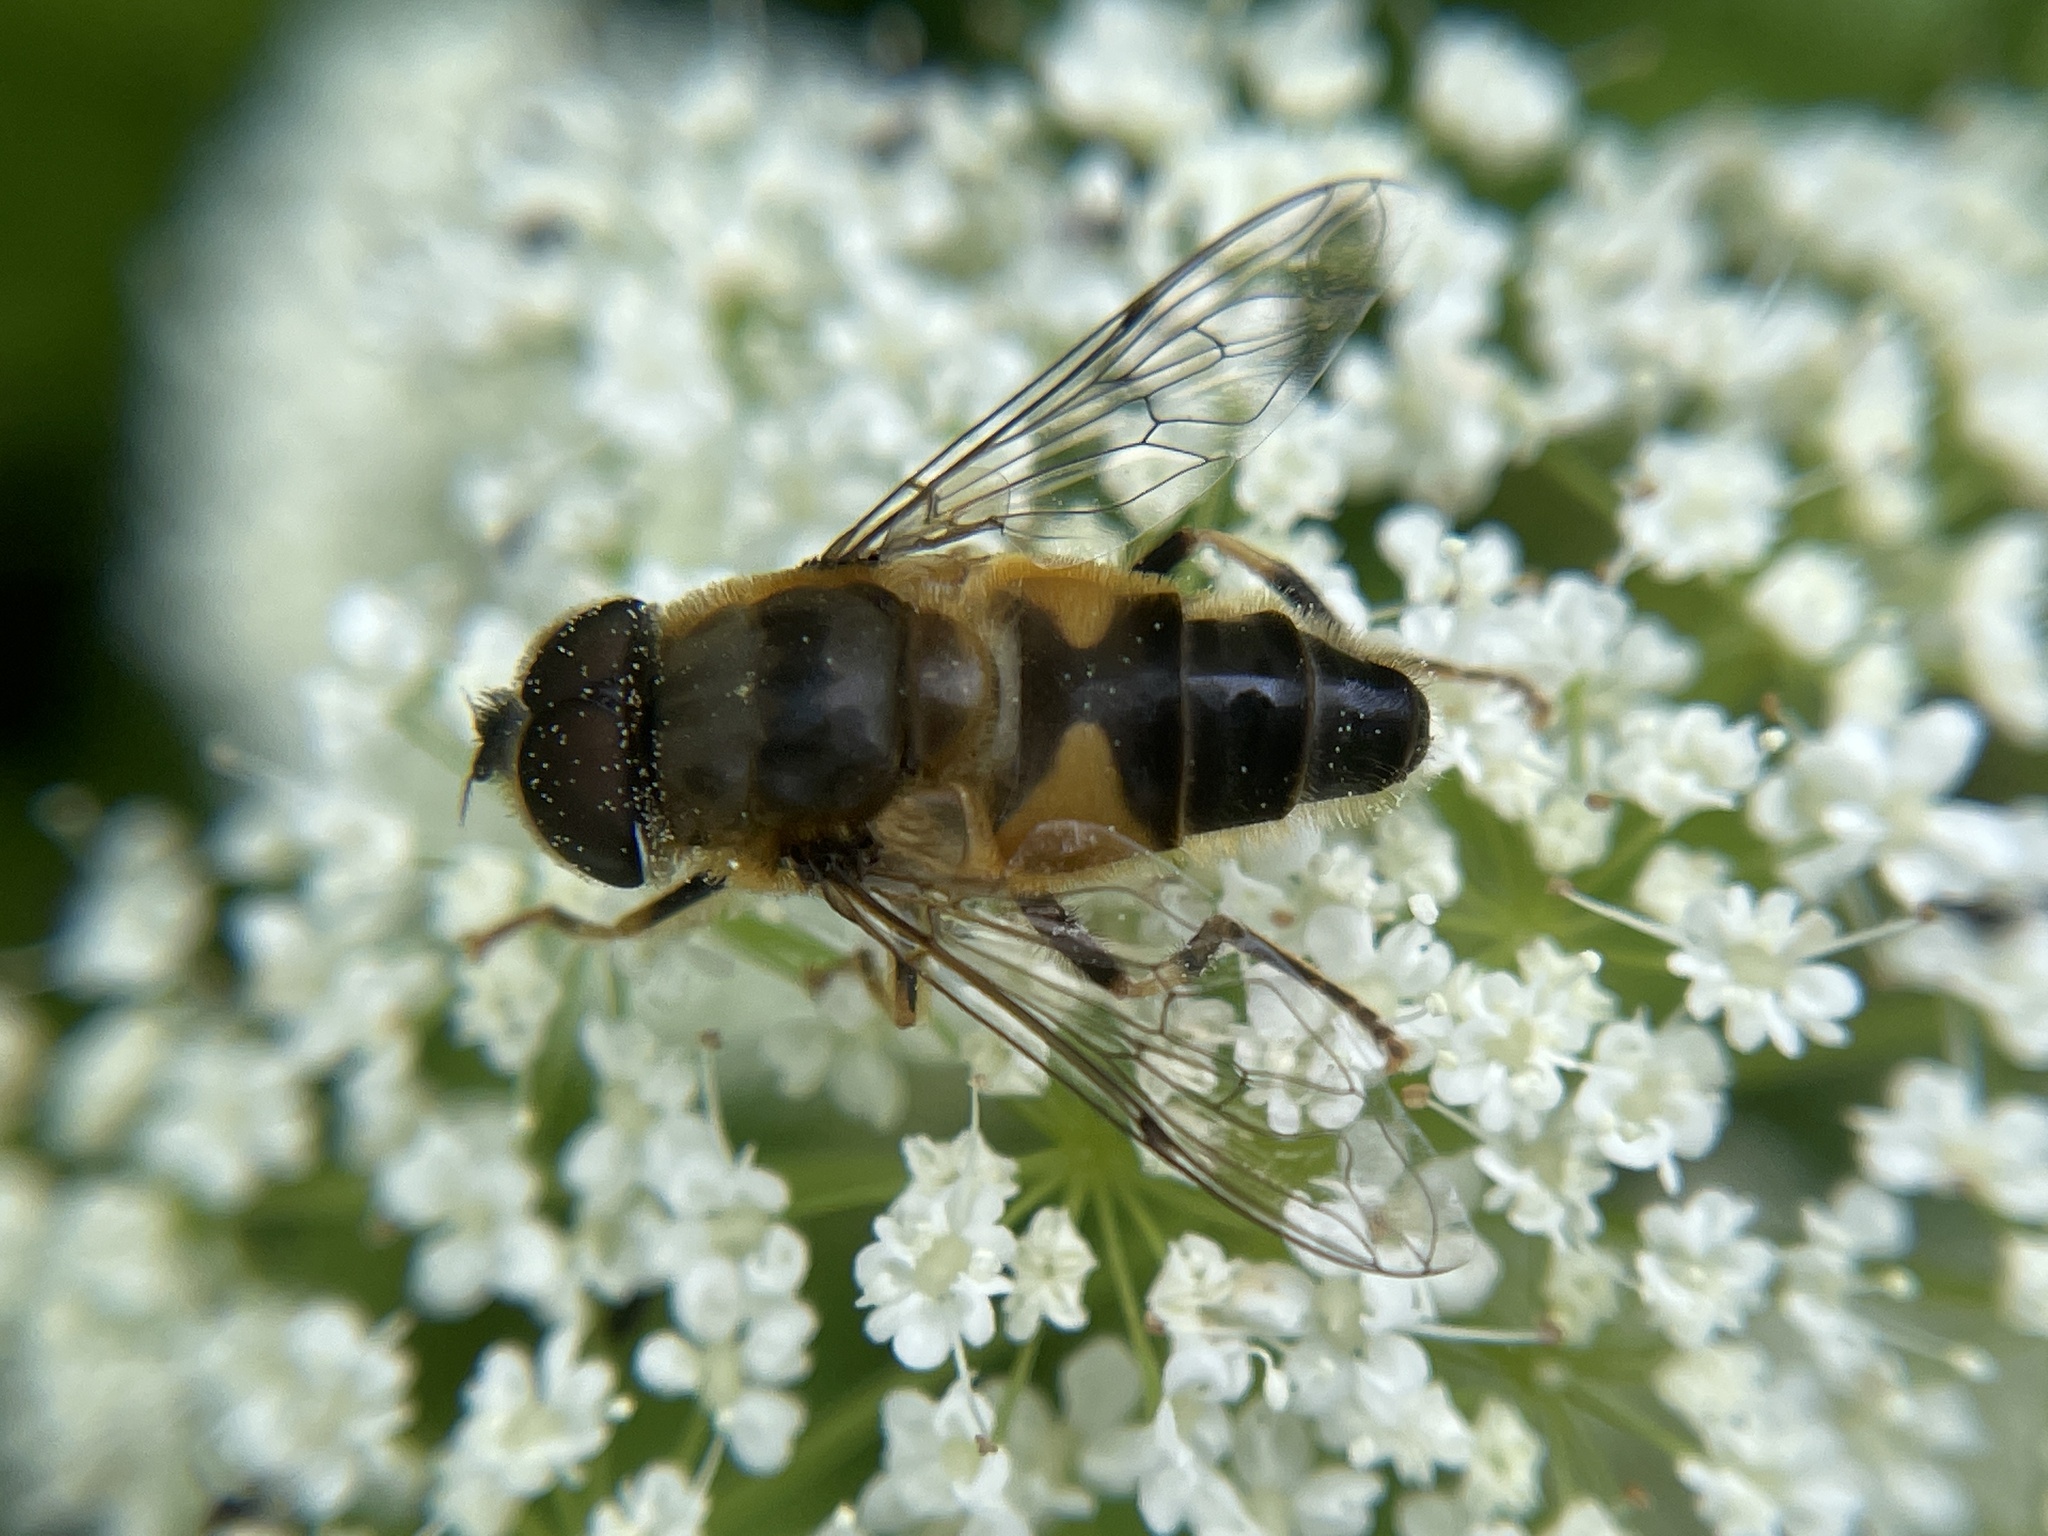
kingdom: Animalia
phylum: Arthropoda
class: Insecta
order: Diptera
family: Syrphidae
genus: Eristalis
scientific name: Eristalis pertinax
